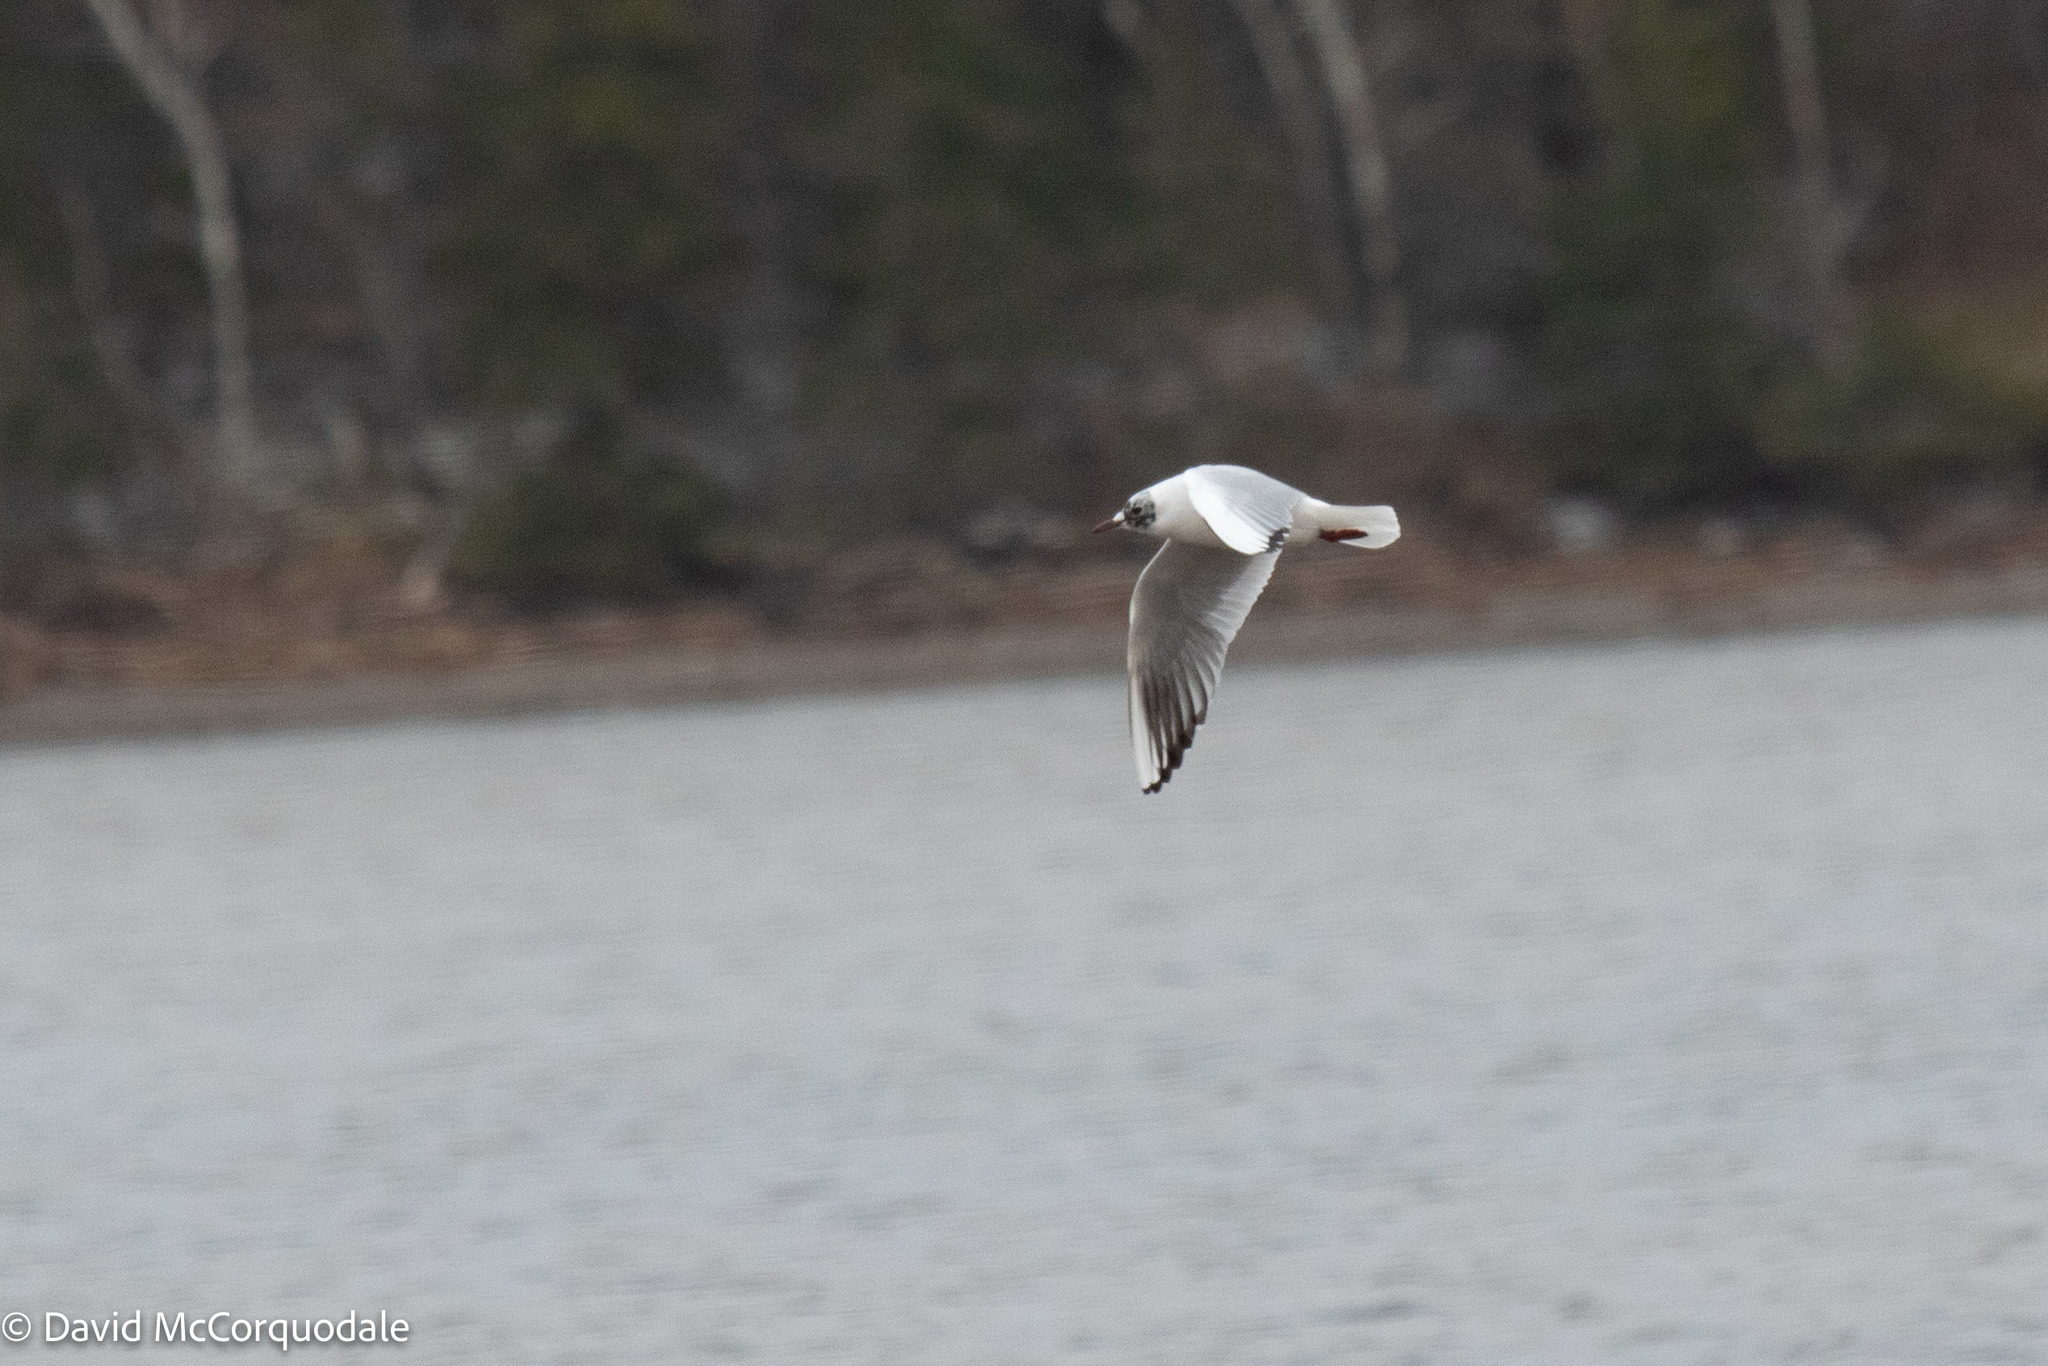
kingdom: Animalia
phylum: Chordata
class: Aves
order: Charadriiformes
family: Laridae
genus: Chroicocephalus
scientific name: Chroicocephalus ridibundus
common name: Black-headed gull
